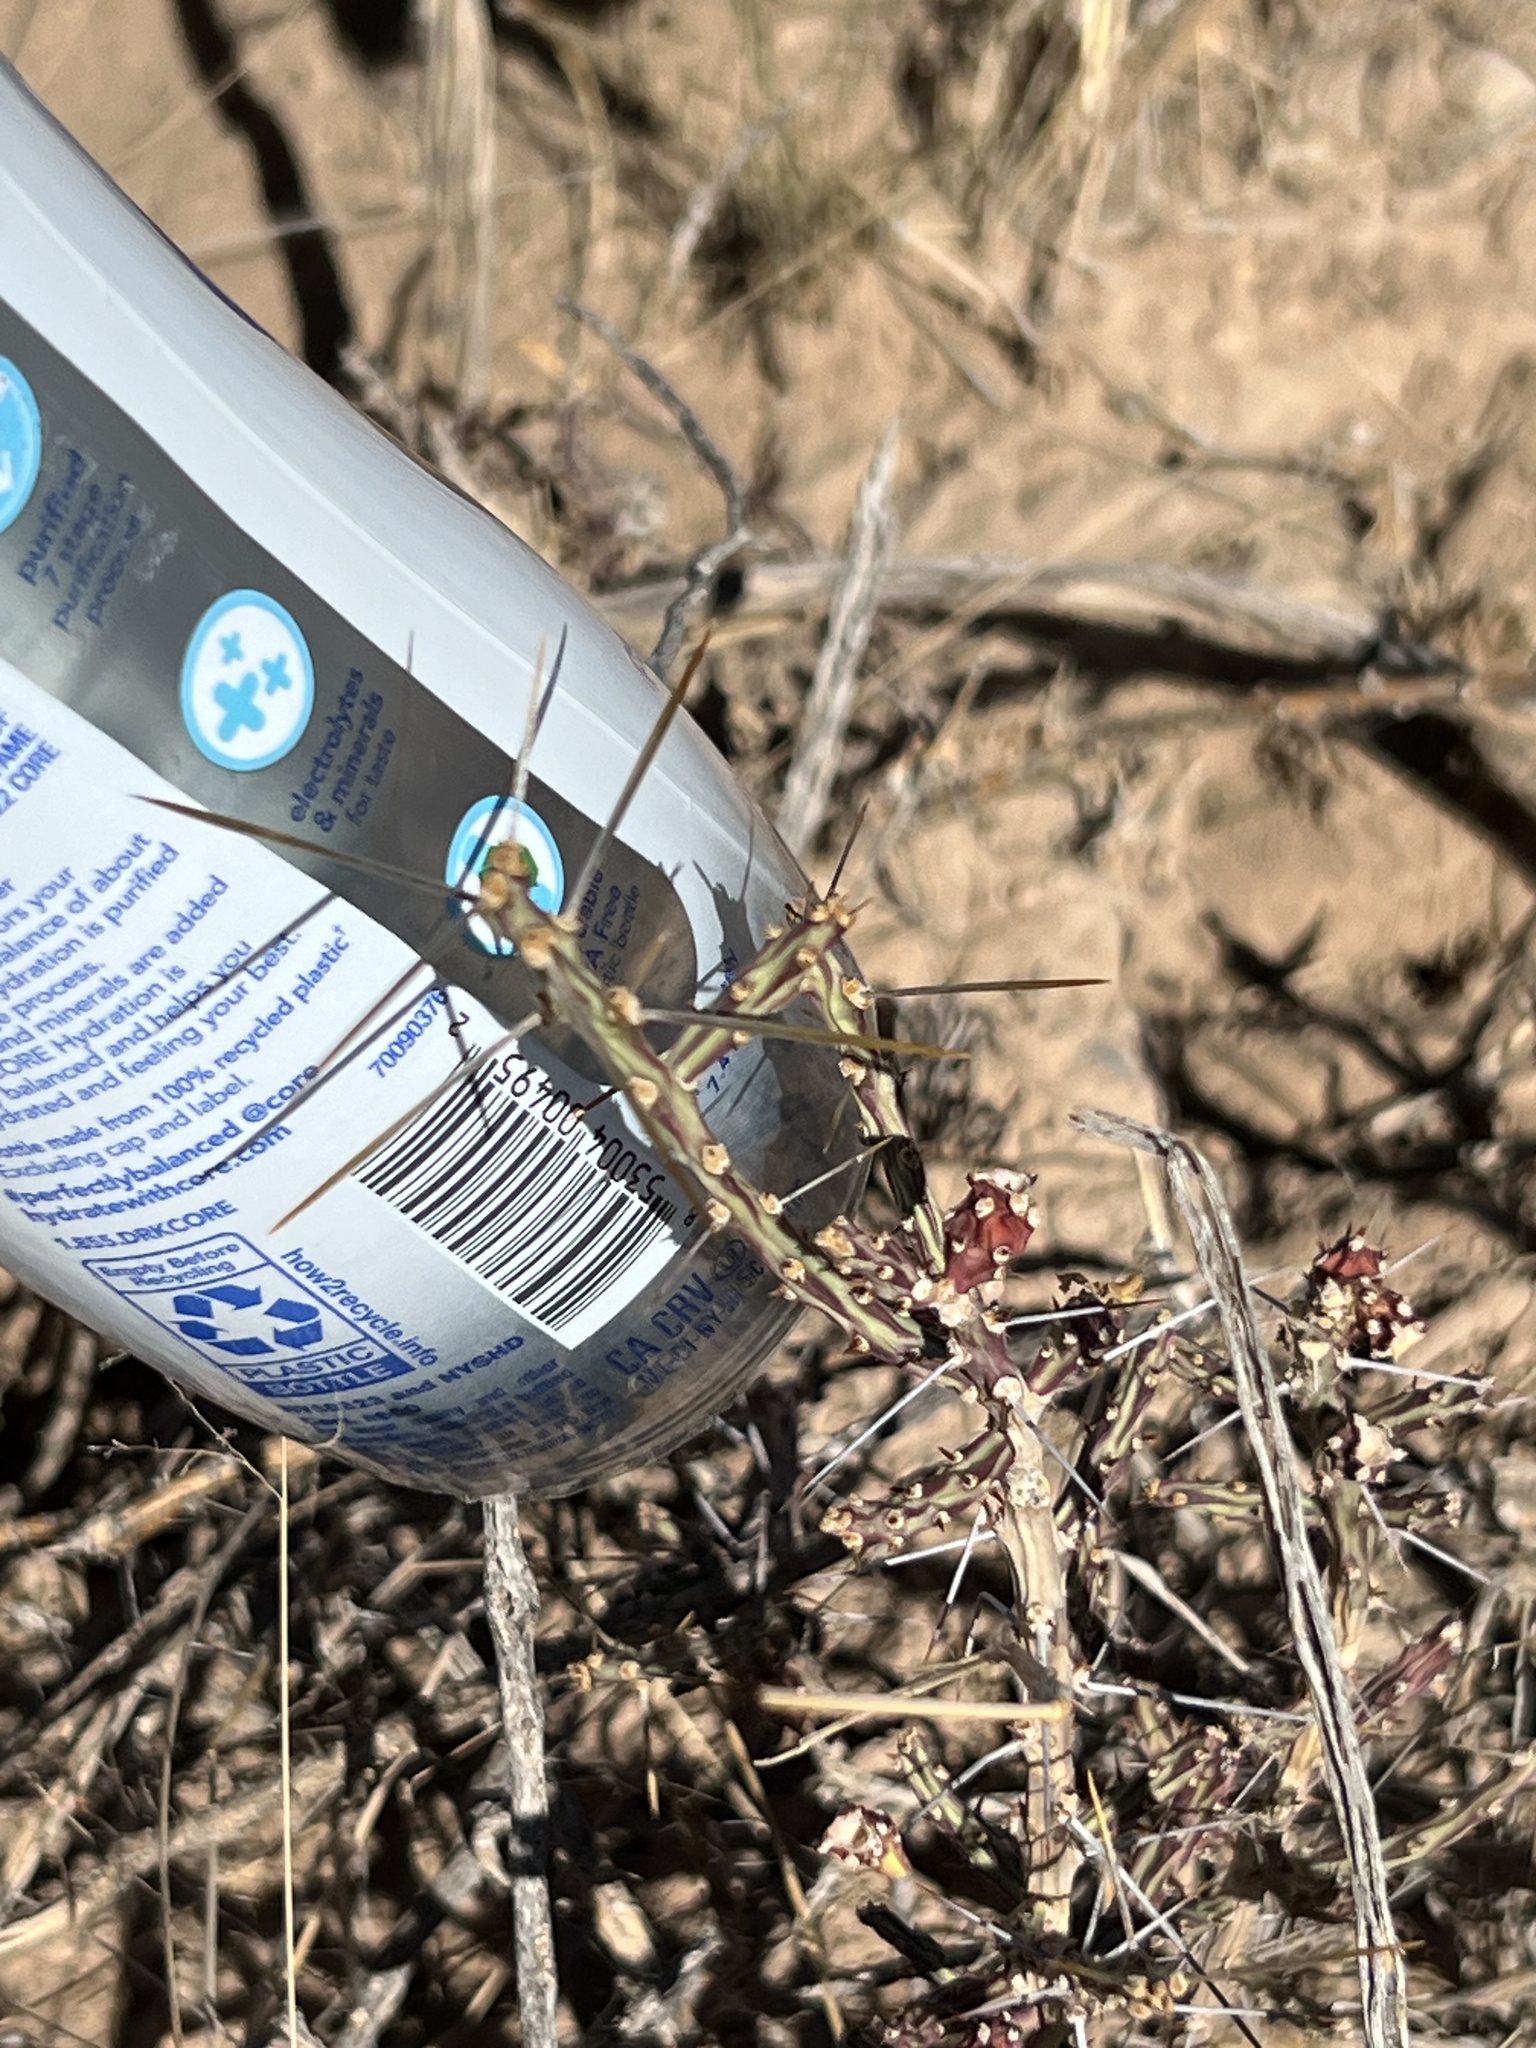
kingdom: Plantae
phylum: Tracheophyta
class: Magnoliopsida
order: Caryophyllales
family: Cactaceae
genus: Cylindropuntia
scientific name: Cylindropuntia leptocaulis
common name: Christmas cactus
